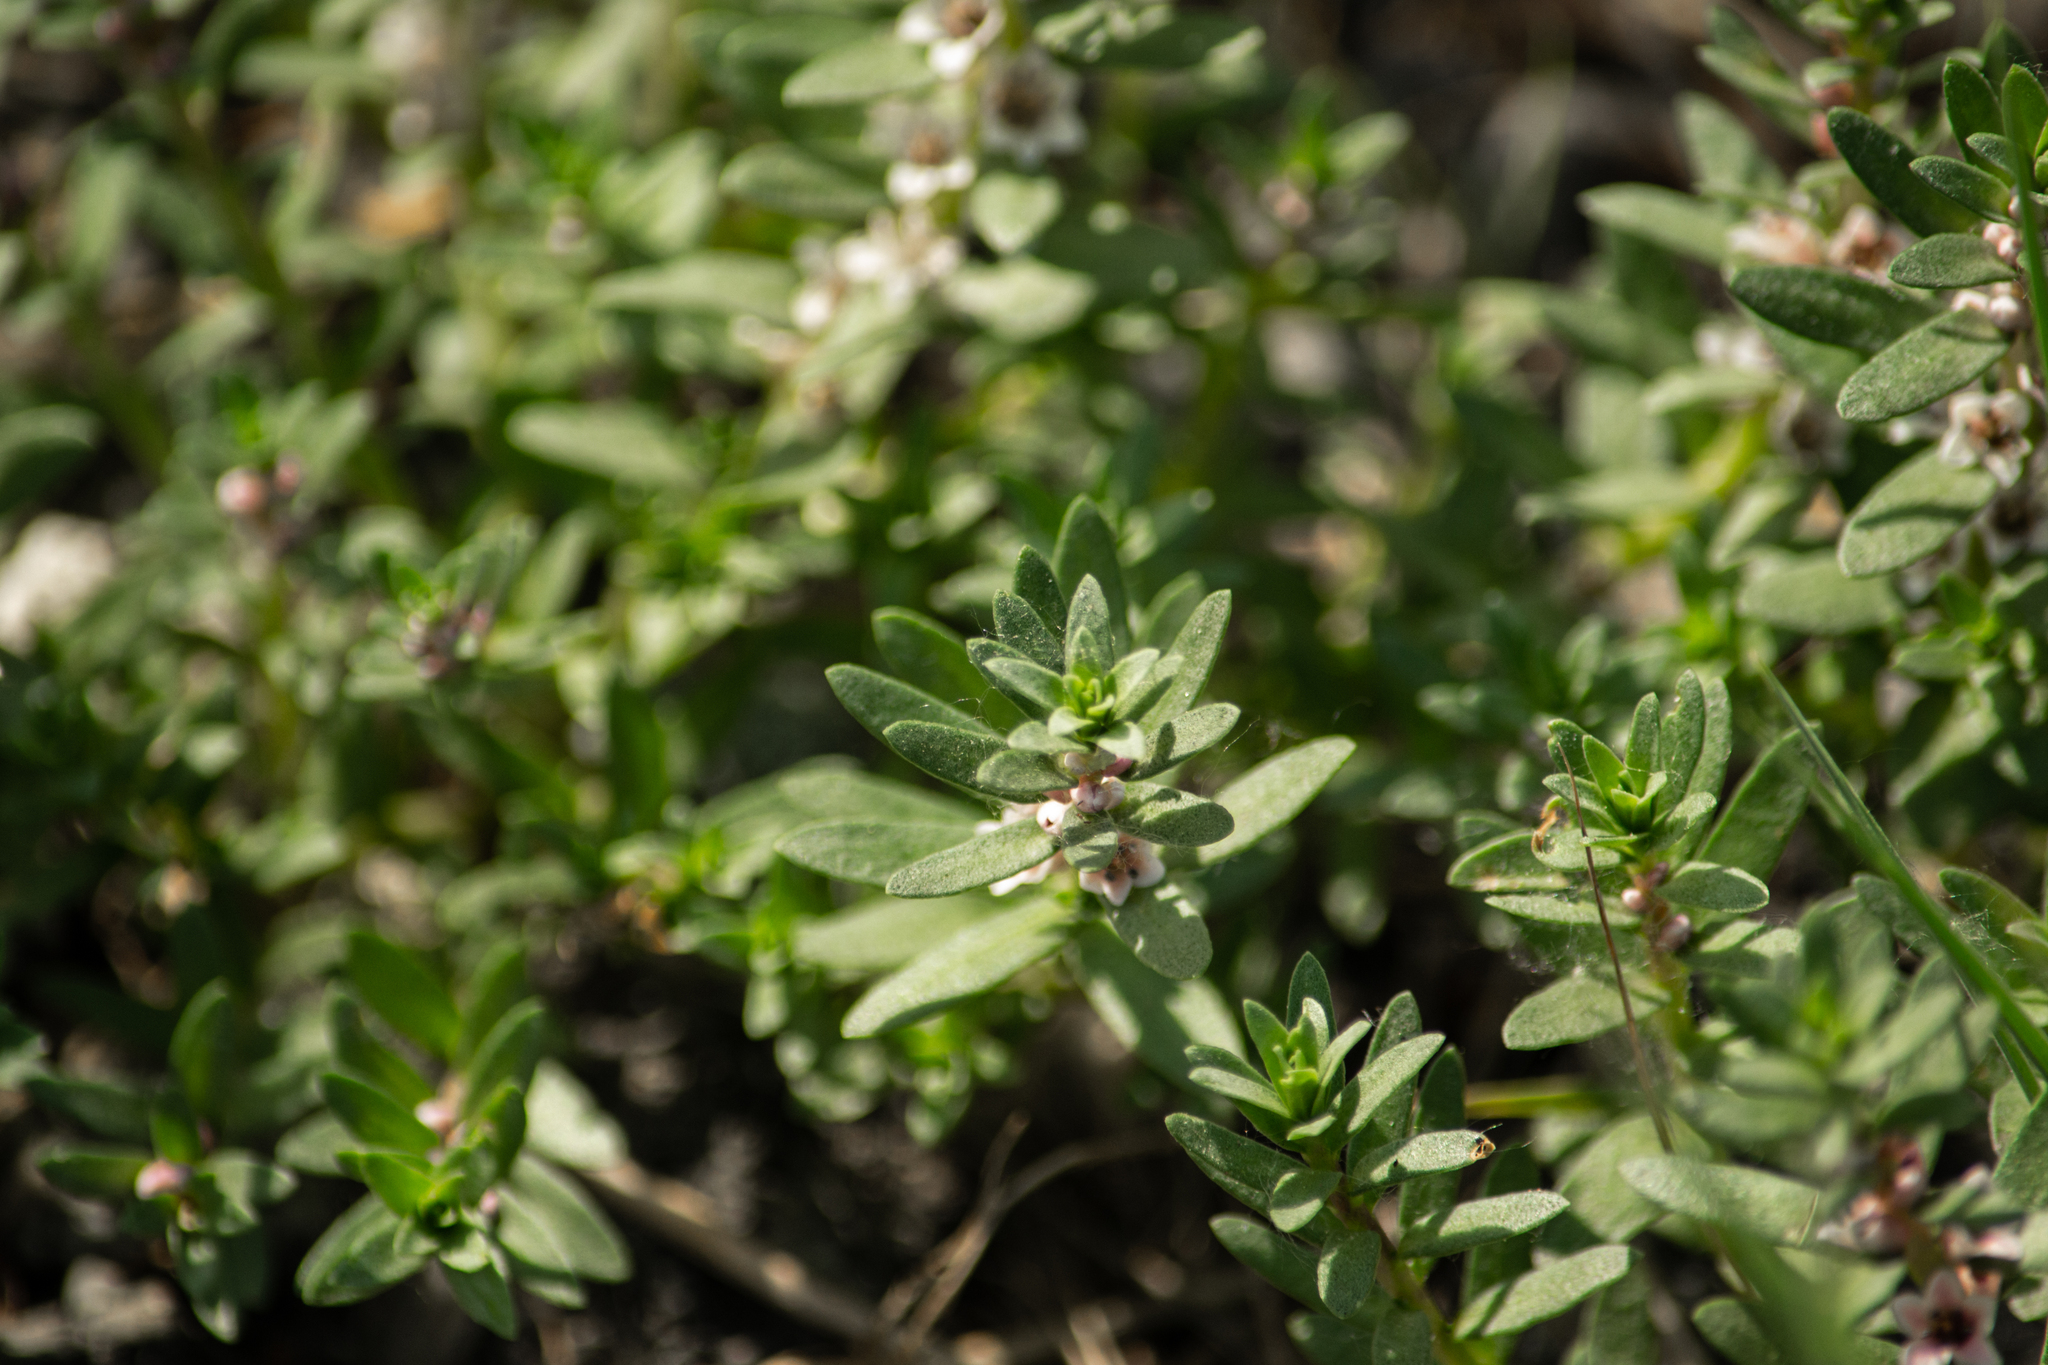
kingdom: Plantae
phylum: Tracheophyta
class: Magnoliopsida
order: Ericales
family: Primulaceae
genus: Lysimachia
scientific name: Lysimachia maritima
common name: Sea milkwort
